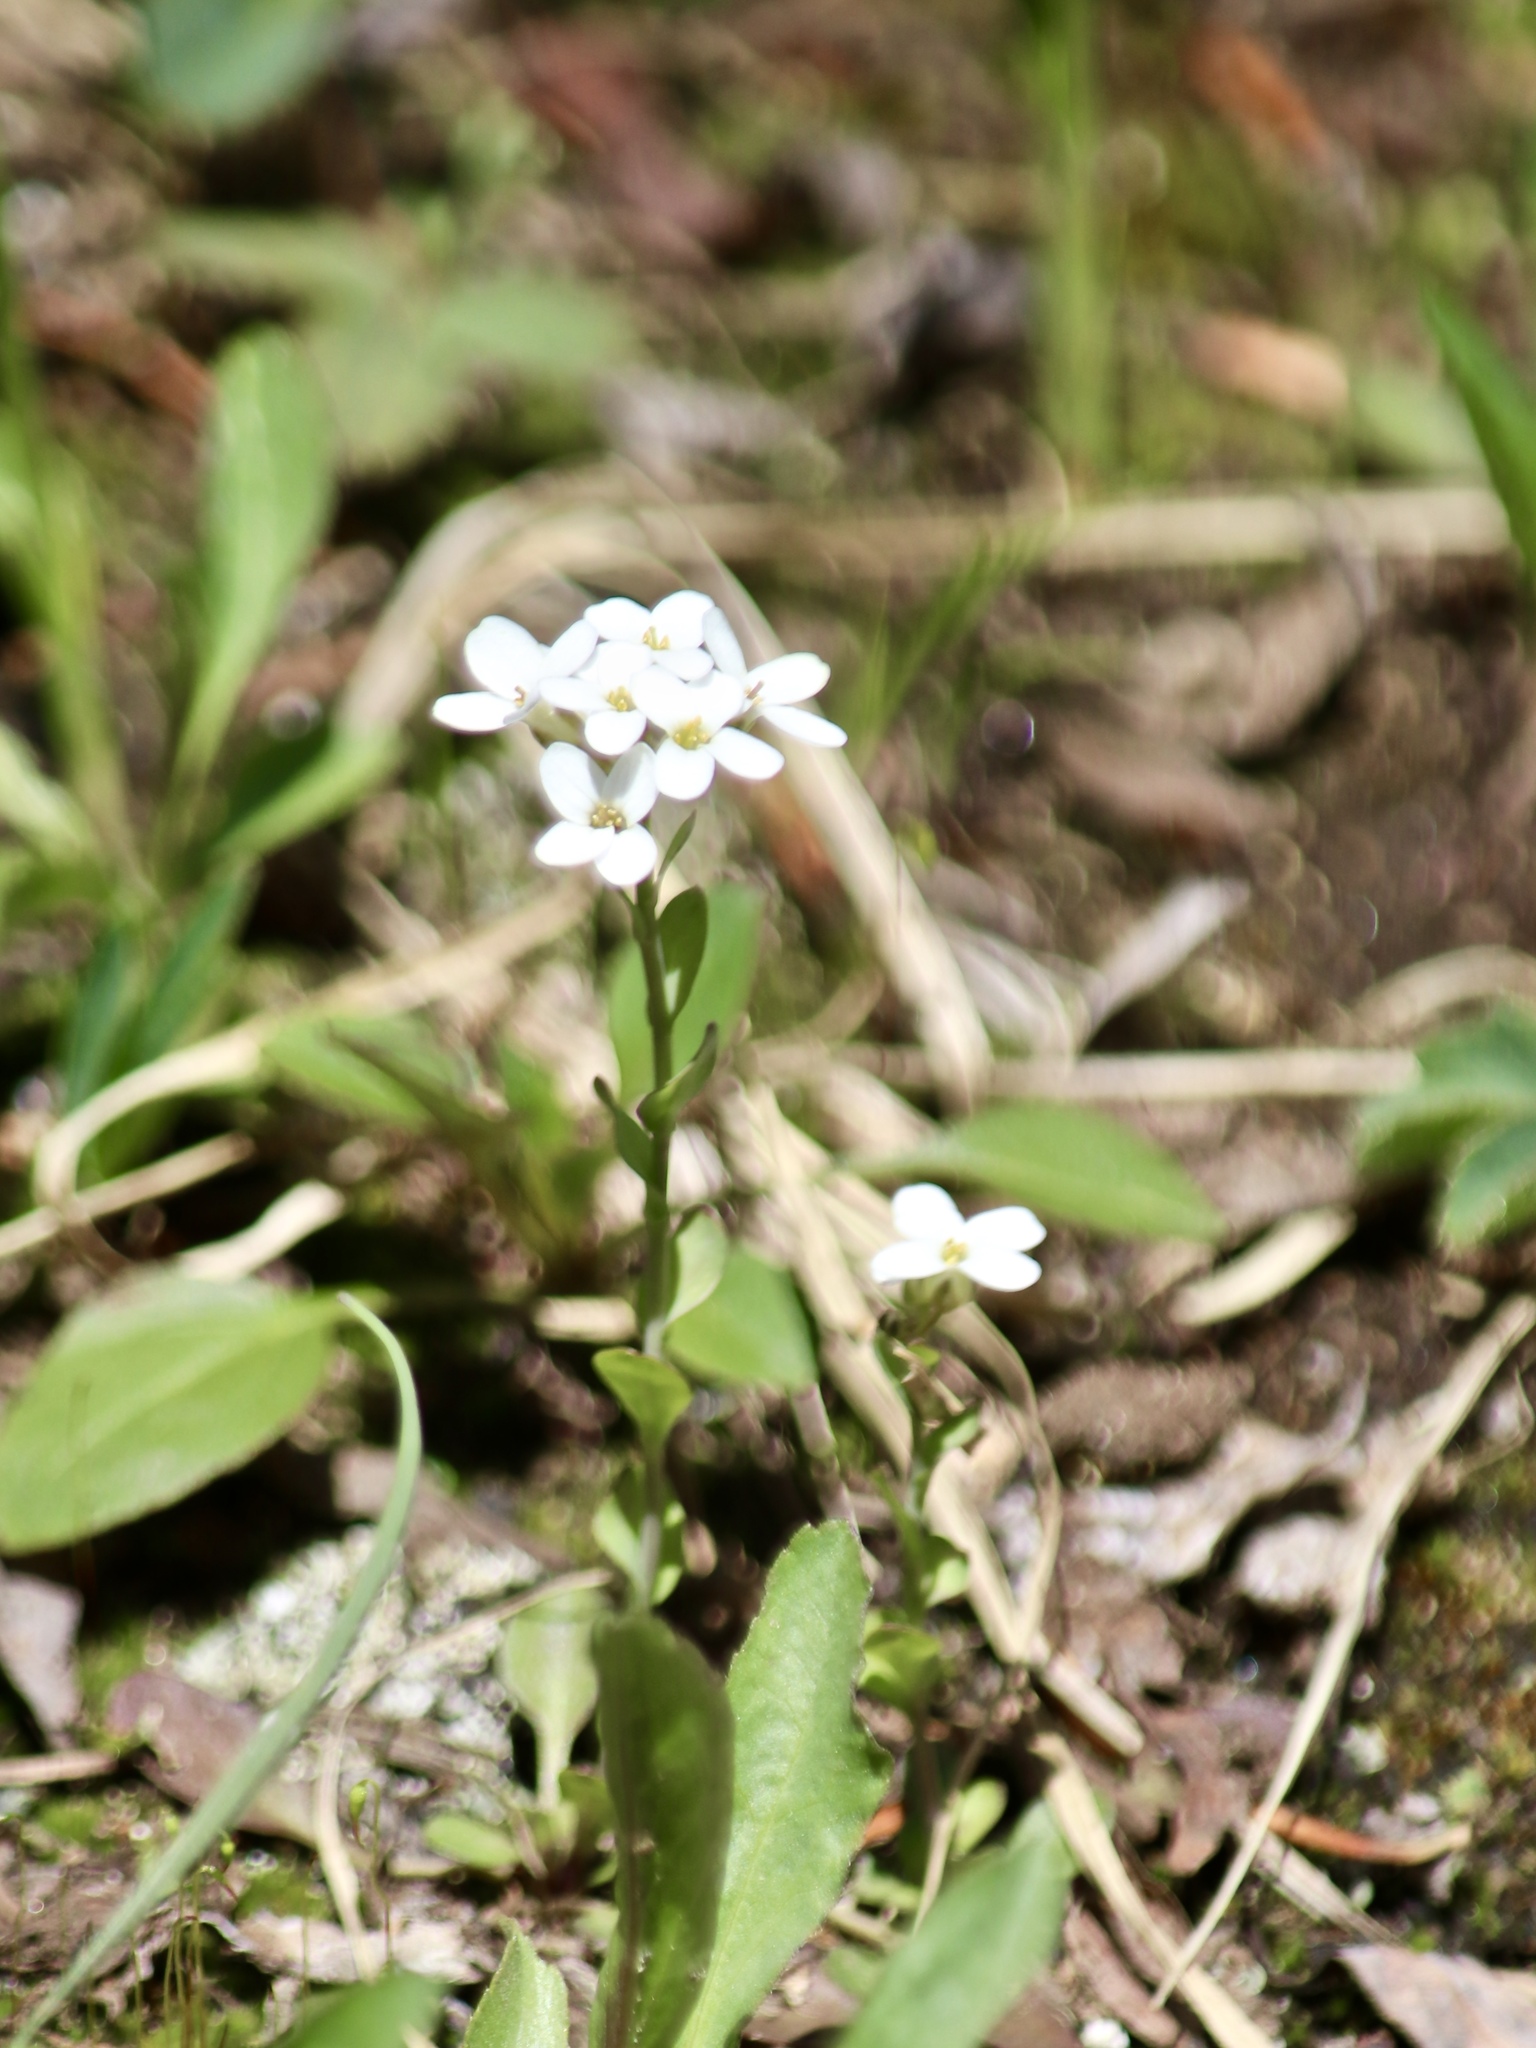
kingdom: Plantae
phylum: Tracheophyta
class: Magnoliopsida
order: Brassicales
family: Brassicaceae
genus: Noccaea
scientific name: Noccaea fendleri
